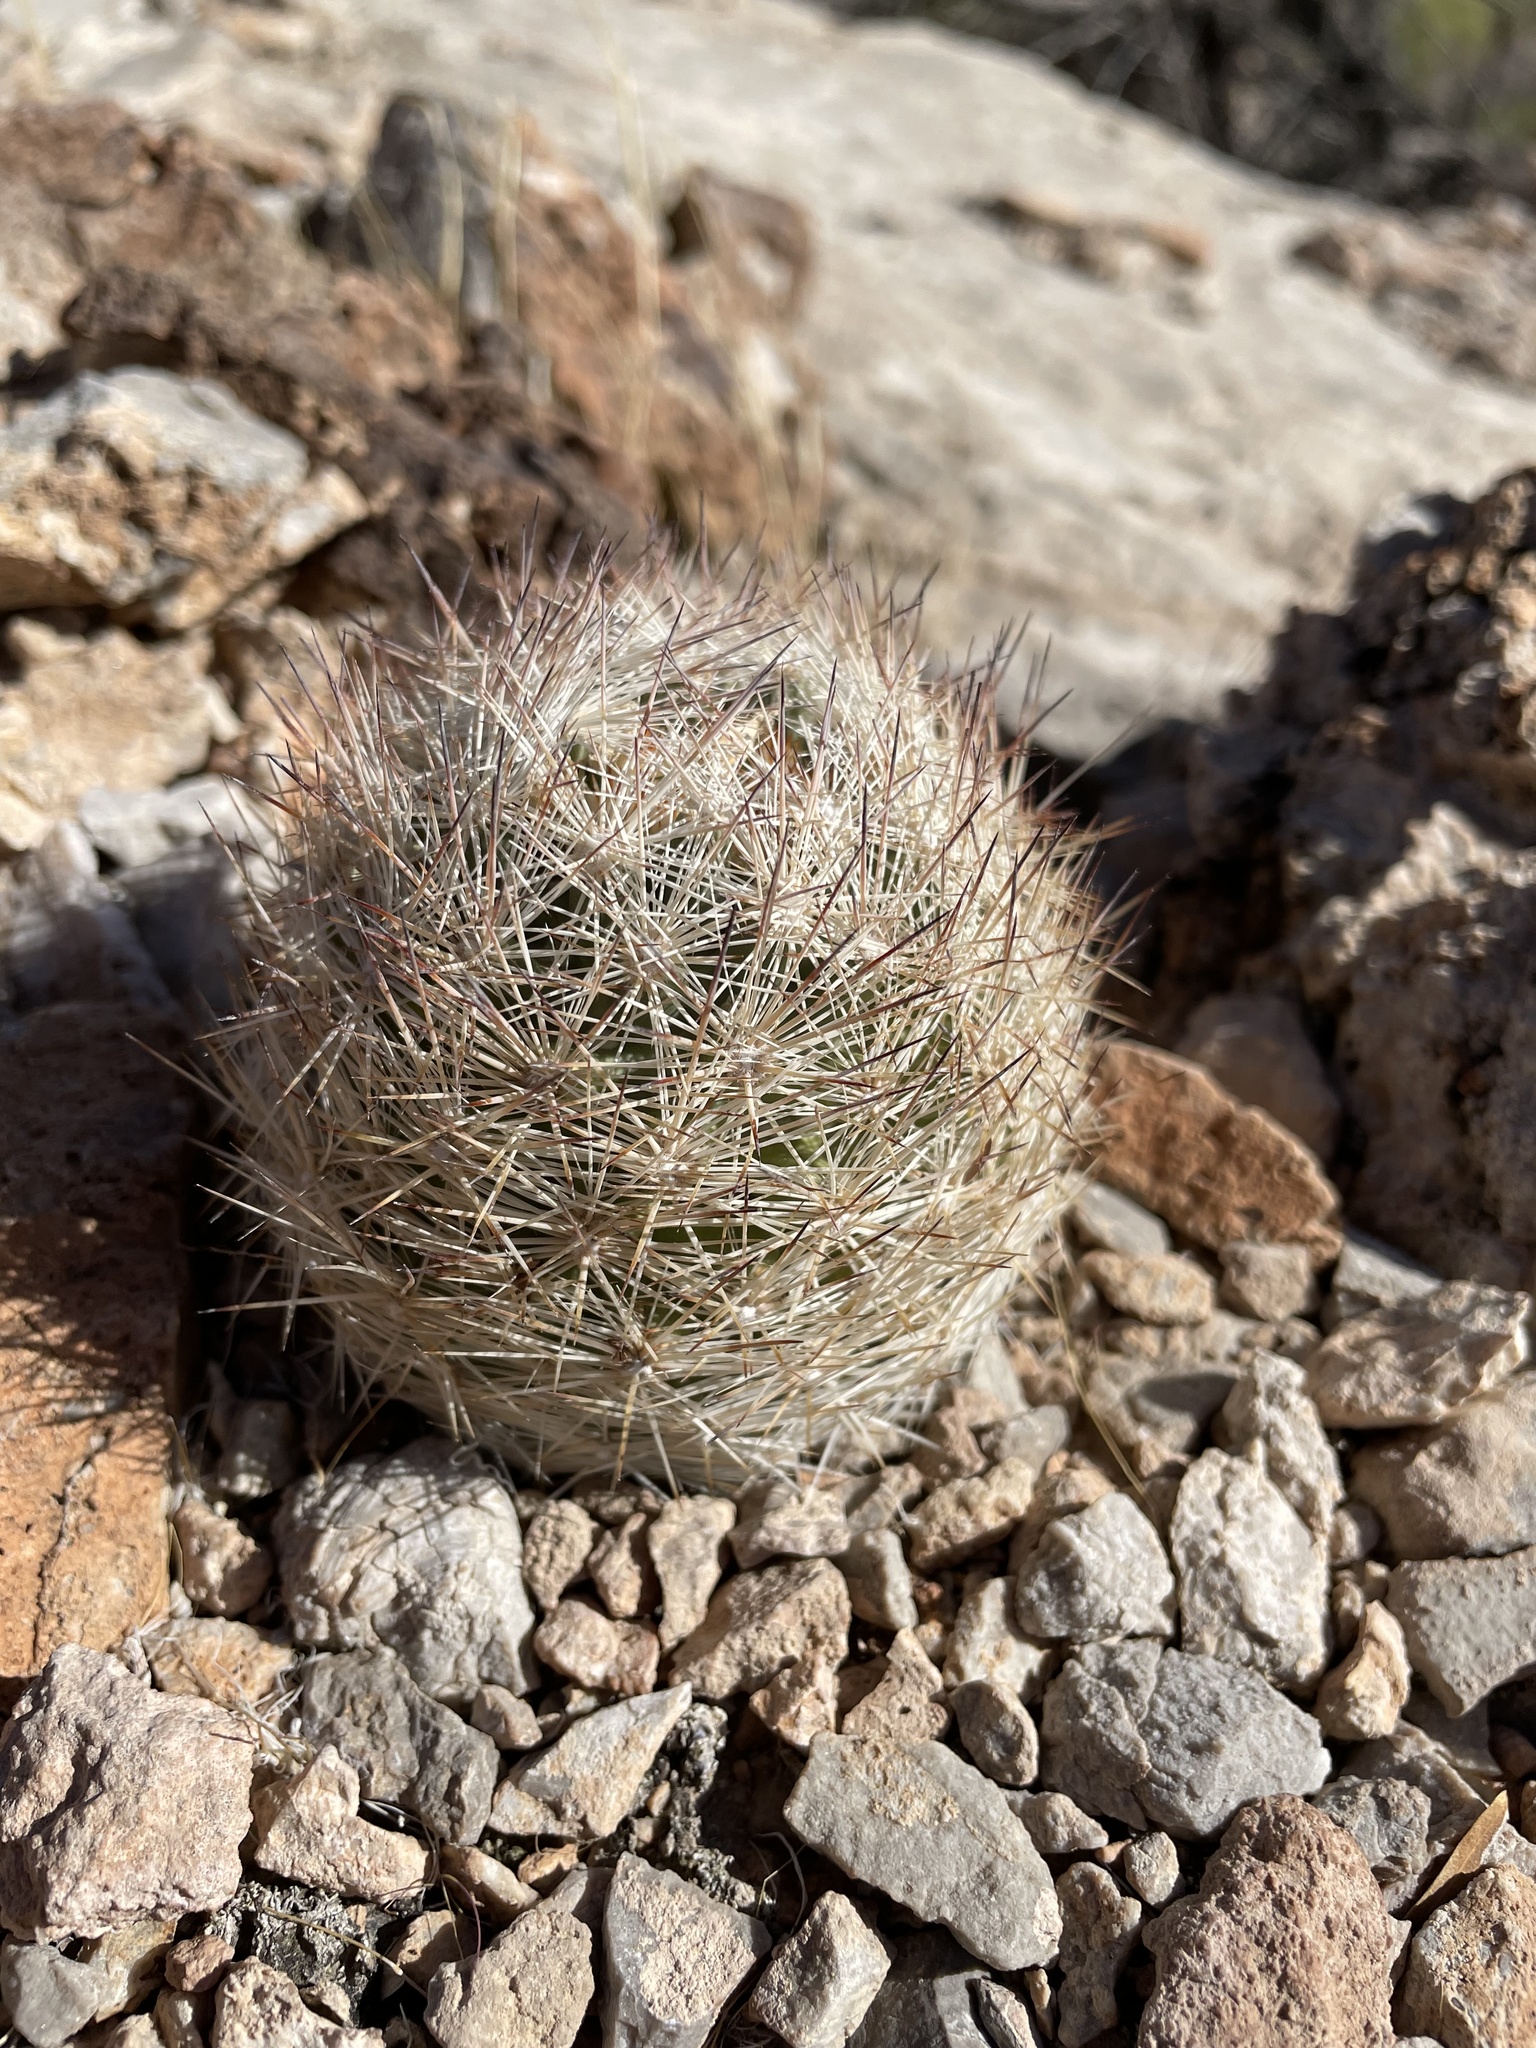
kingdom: Plantae
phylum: Tracheophyta
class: Magnoliopsida
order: Caryophyllales
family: Cactaceae
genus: Pelecyphora
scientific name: Pelecyphora dasyacantha
